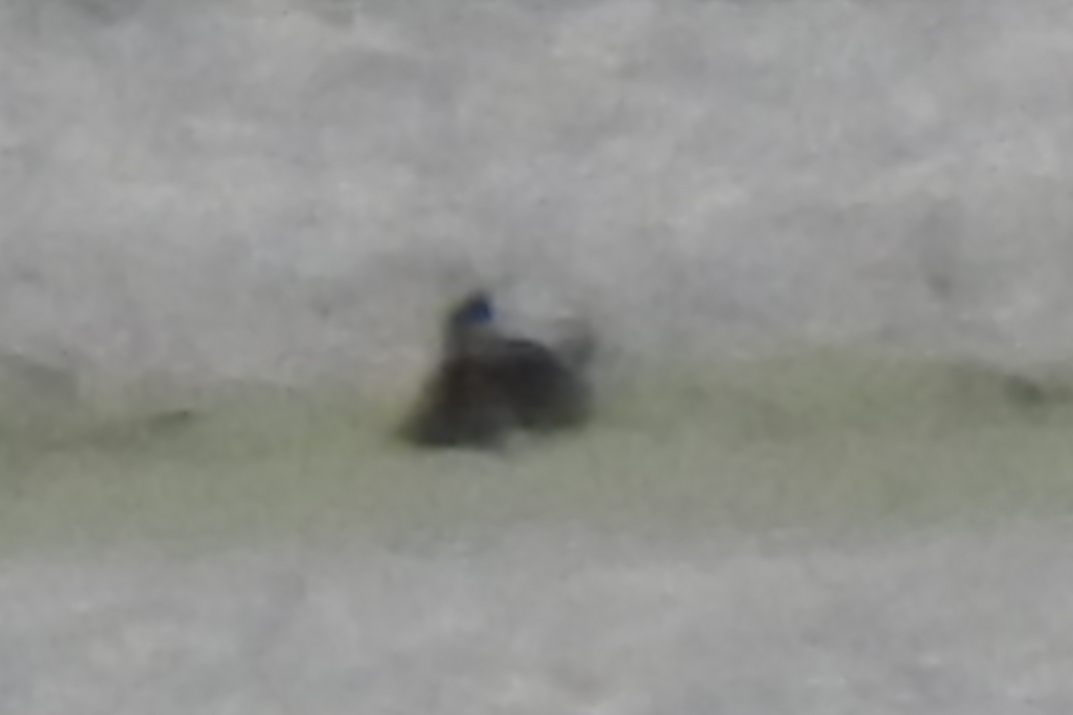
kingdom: Animalia
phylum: Chordata
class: Aves
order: Anseriformes
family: Anatidae
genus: Oxyura
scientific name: Oxyura jamaicensis
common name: Ruddy duck
